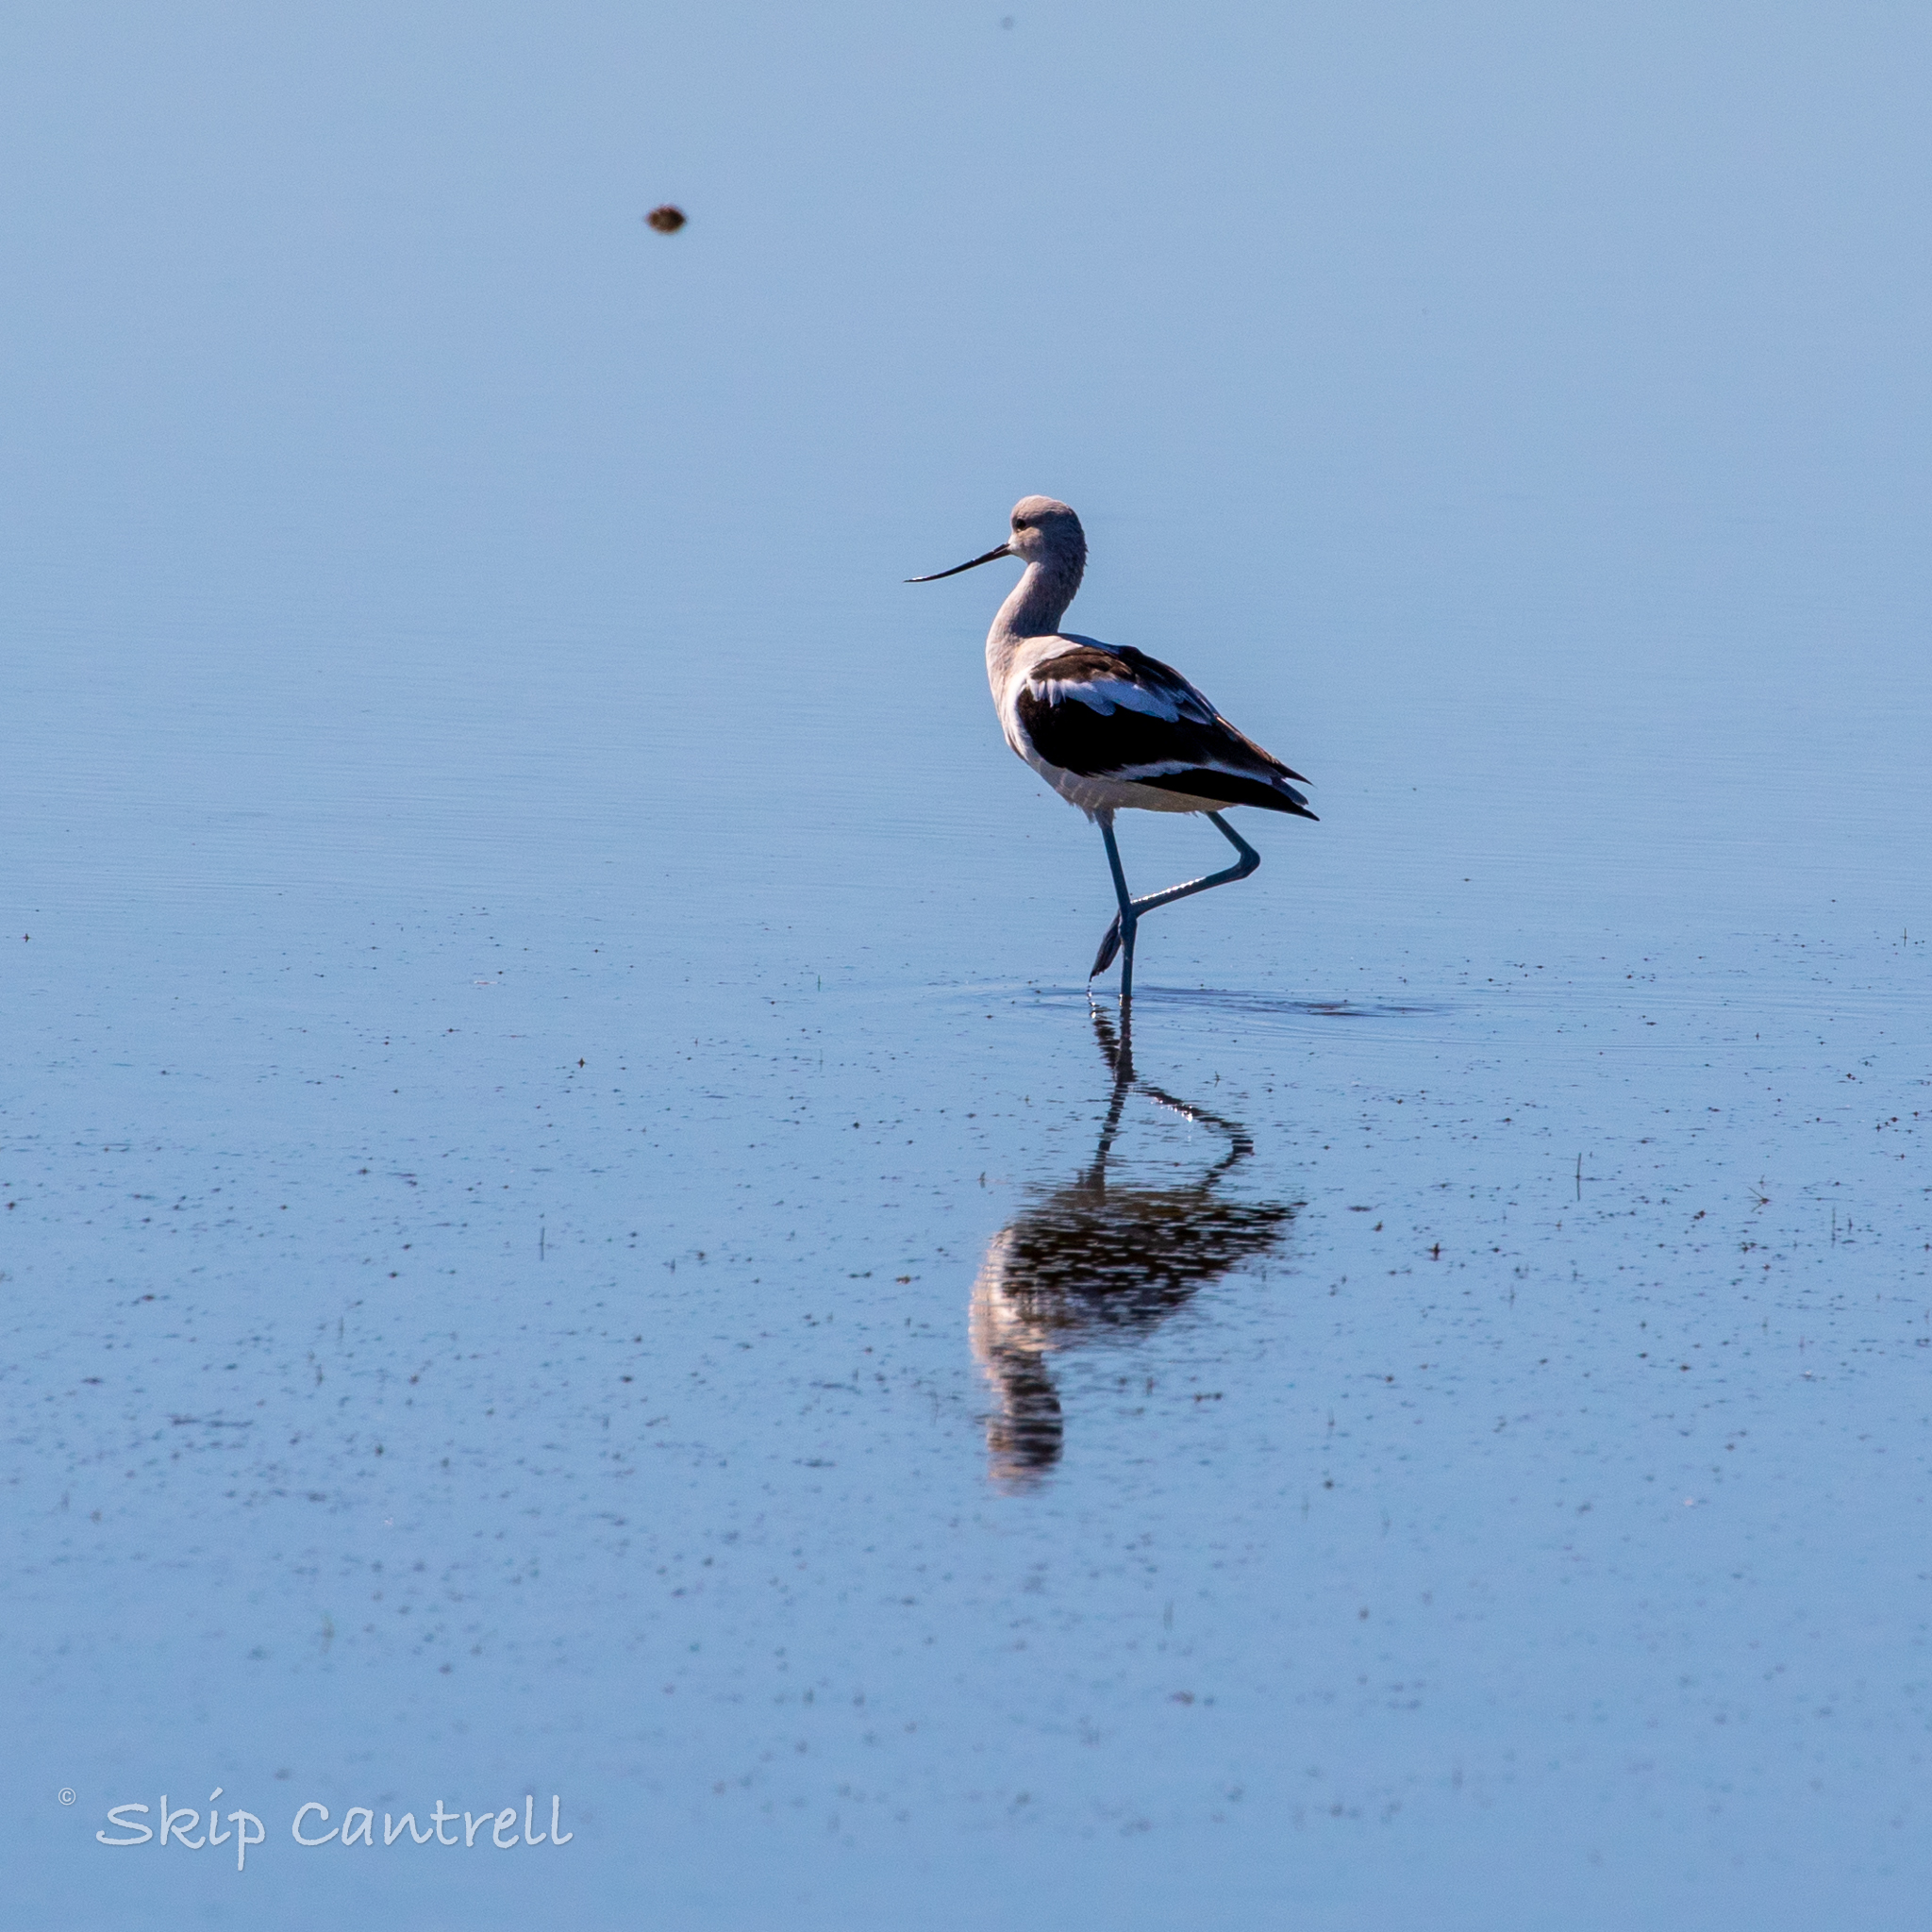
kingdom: Animalia
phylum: Chordata
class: Aves
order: Charadriiformes
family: Recurvirostridae
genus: Recurvirostra
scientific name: Recurvirostra americana
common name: American avocet
